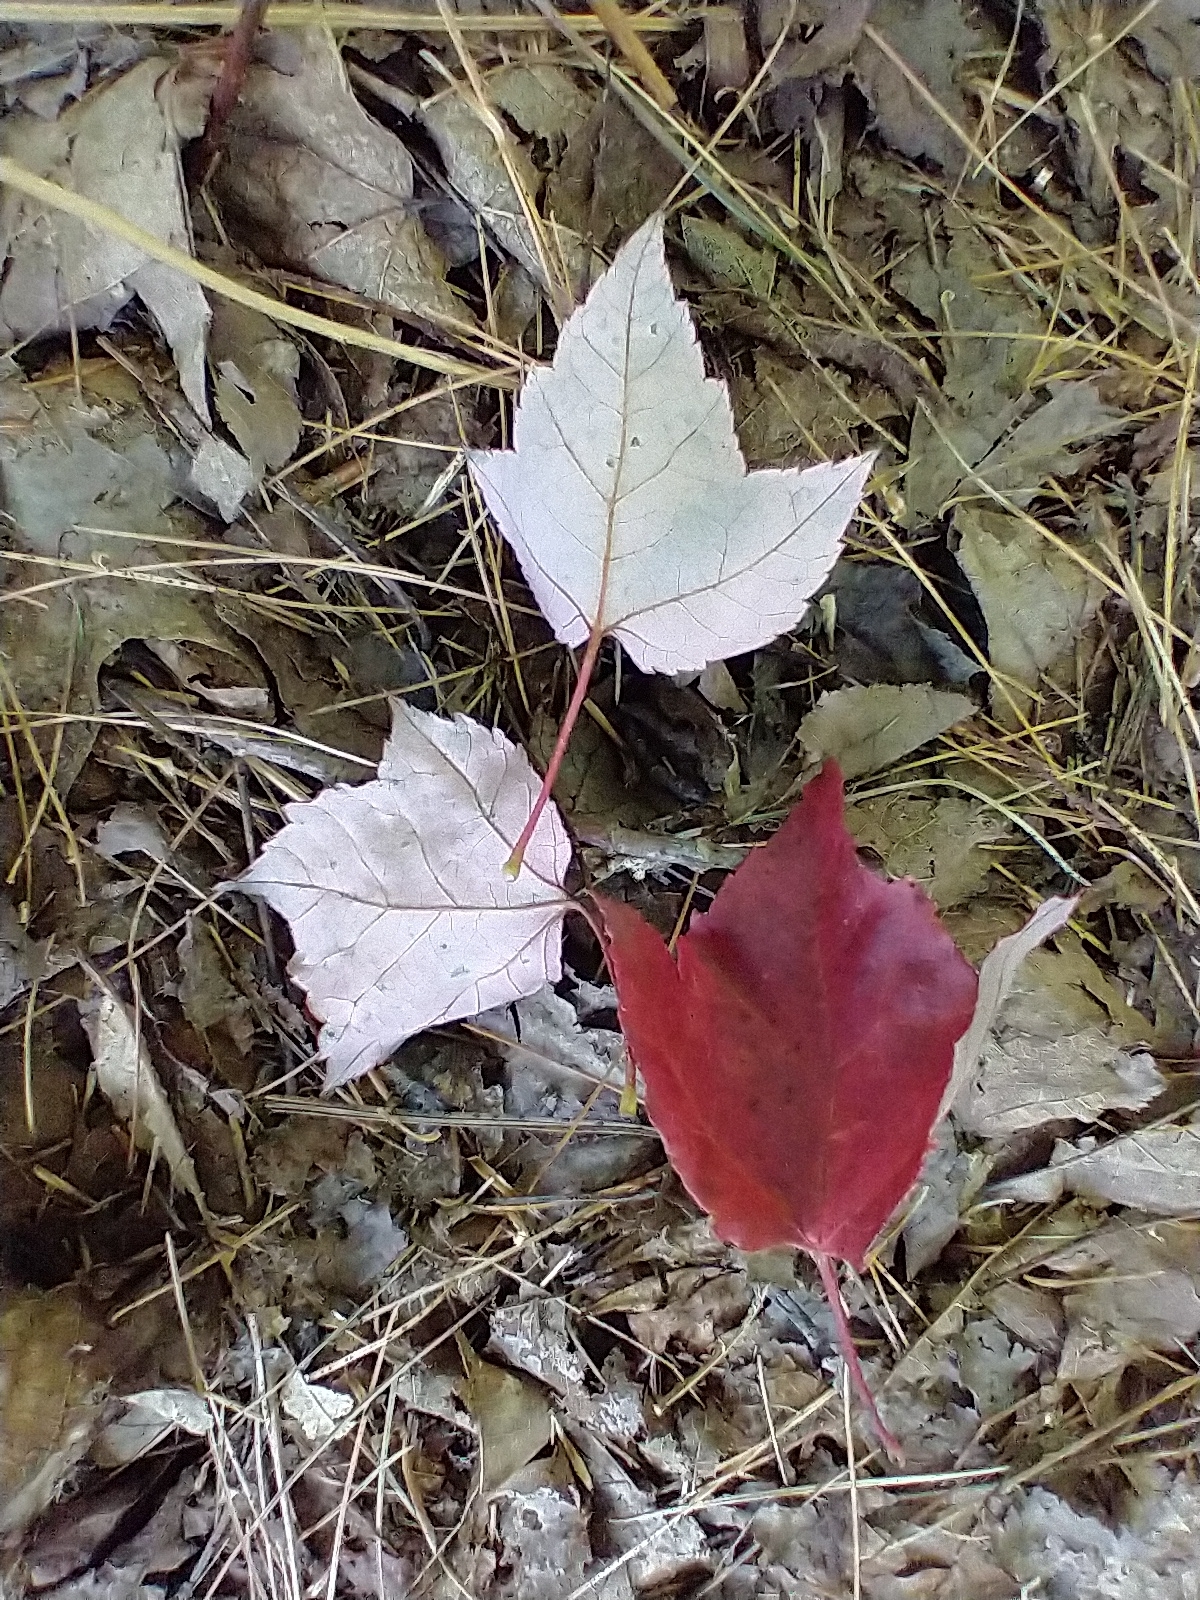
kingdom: Plantae
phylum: Tracheophyta
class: Magnoliopsida
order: Sapindales
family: Sapindaceae
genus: Acer
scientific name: Acer rubrum
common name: Red maple
